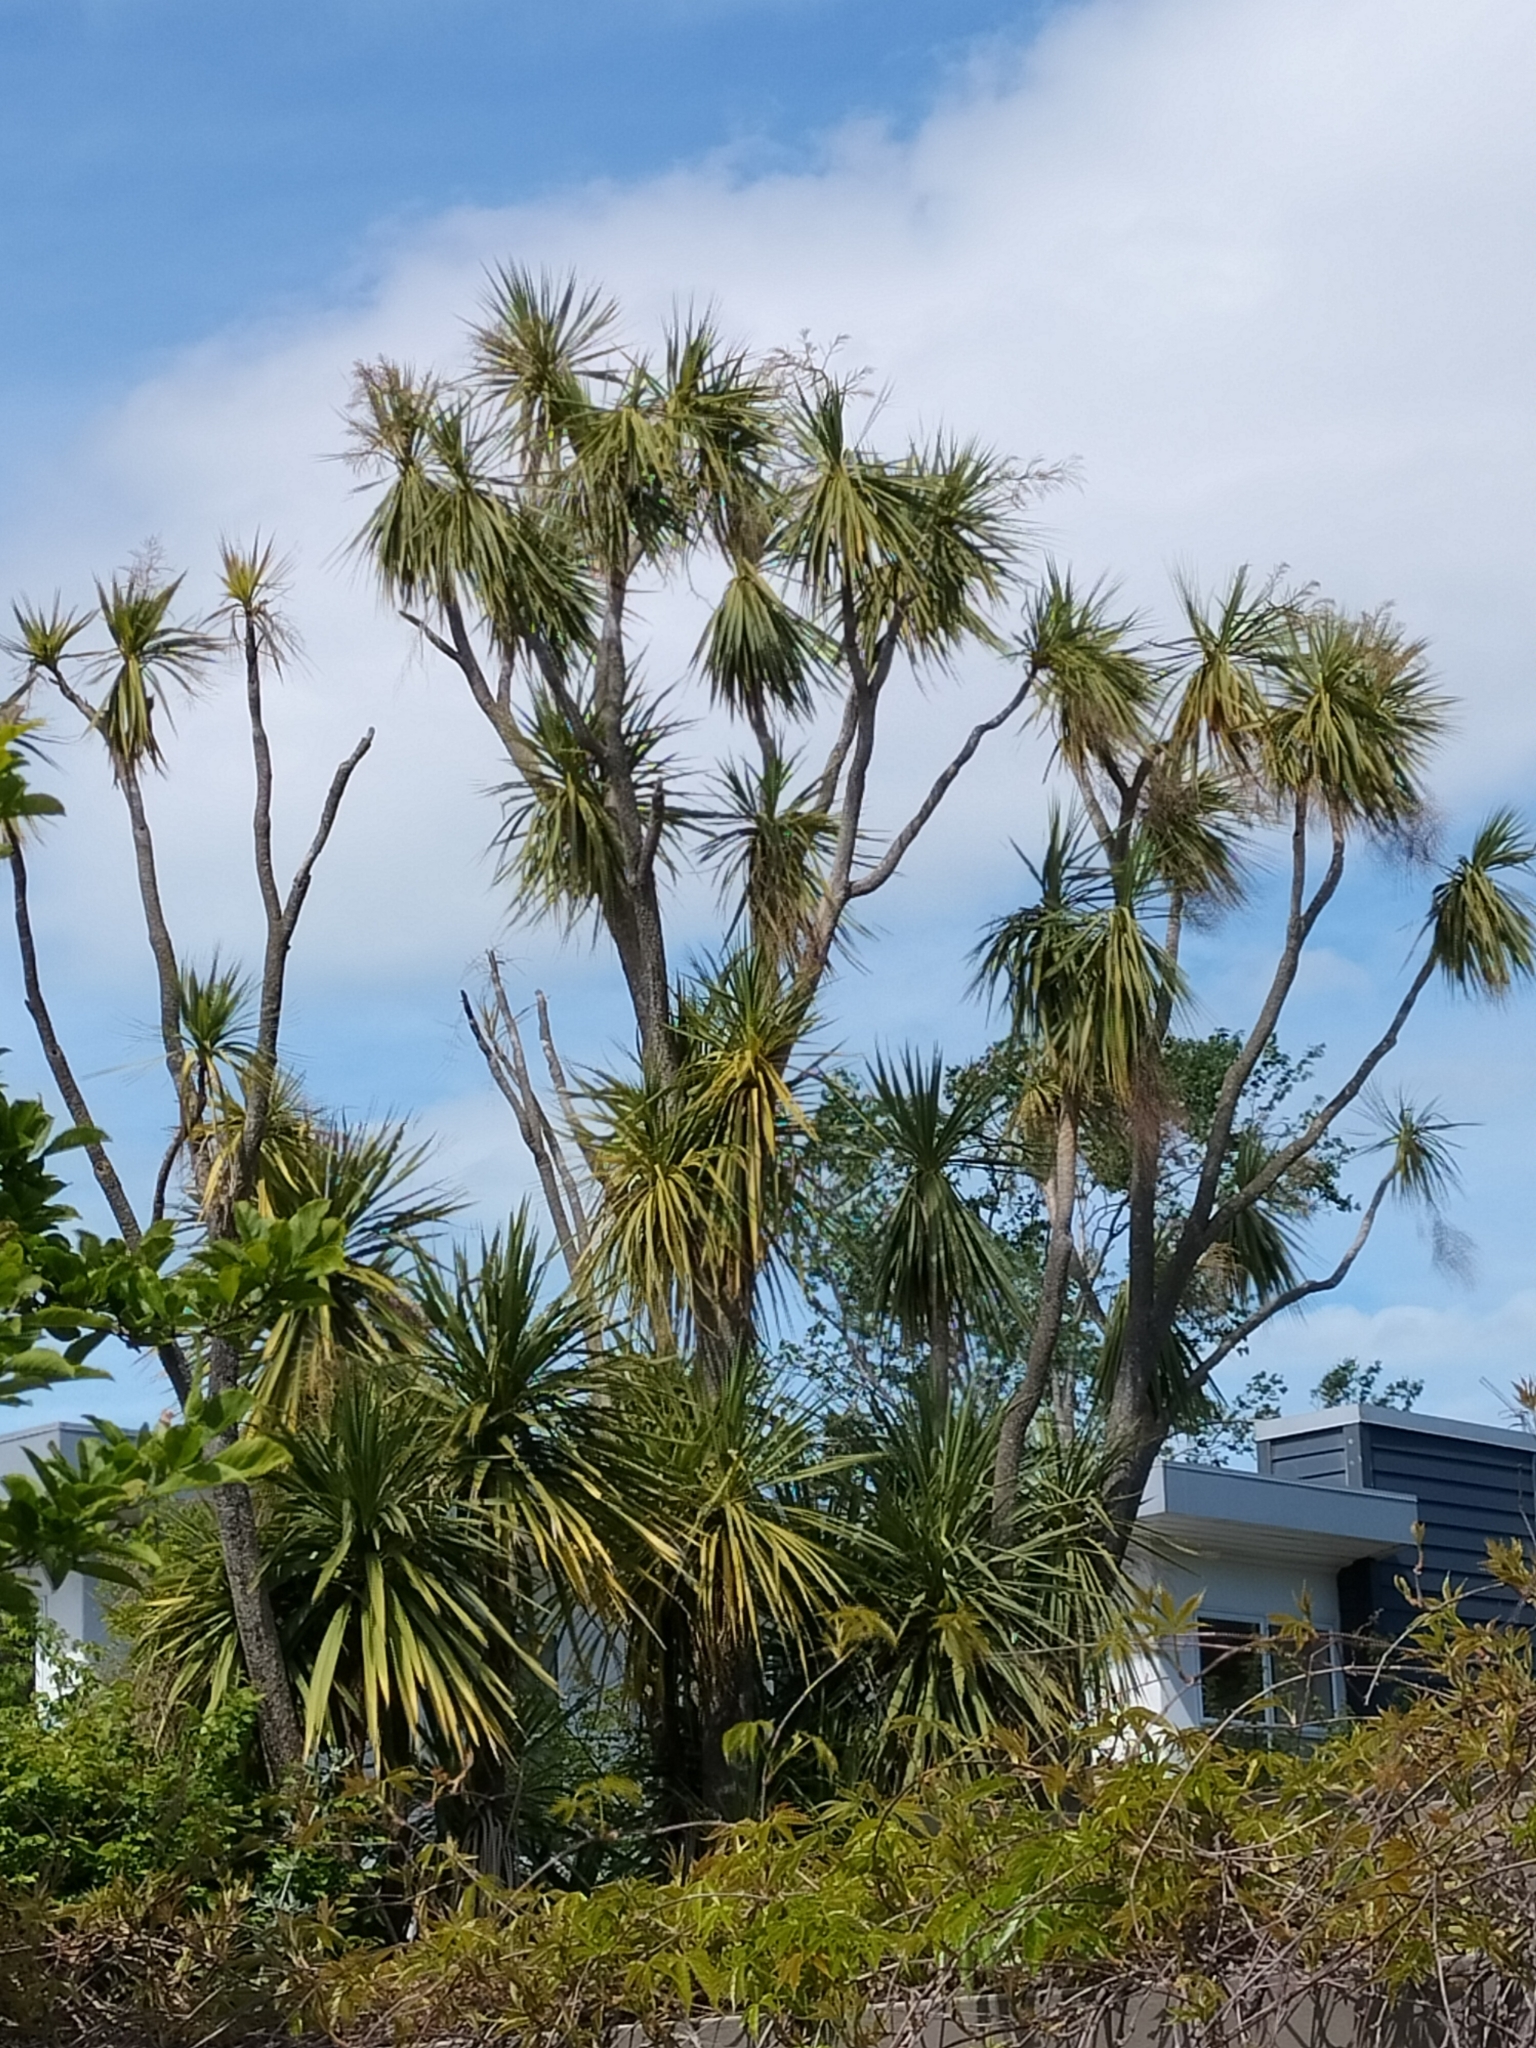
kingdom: Plantae
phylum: Tracheophyta
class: Liliopsida
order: Asparagales
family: Asparagaceae
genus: Cordyline
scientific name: Cordyline australis
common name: Cabbage-palm
